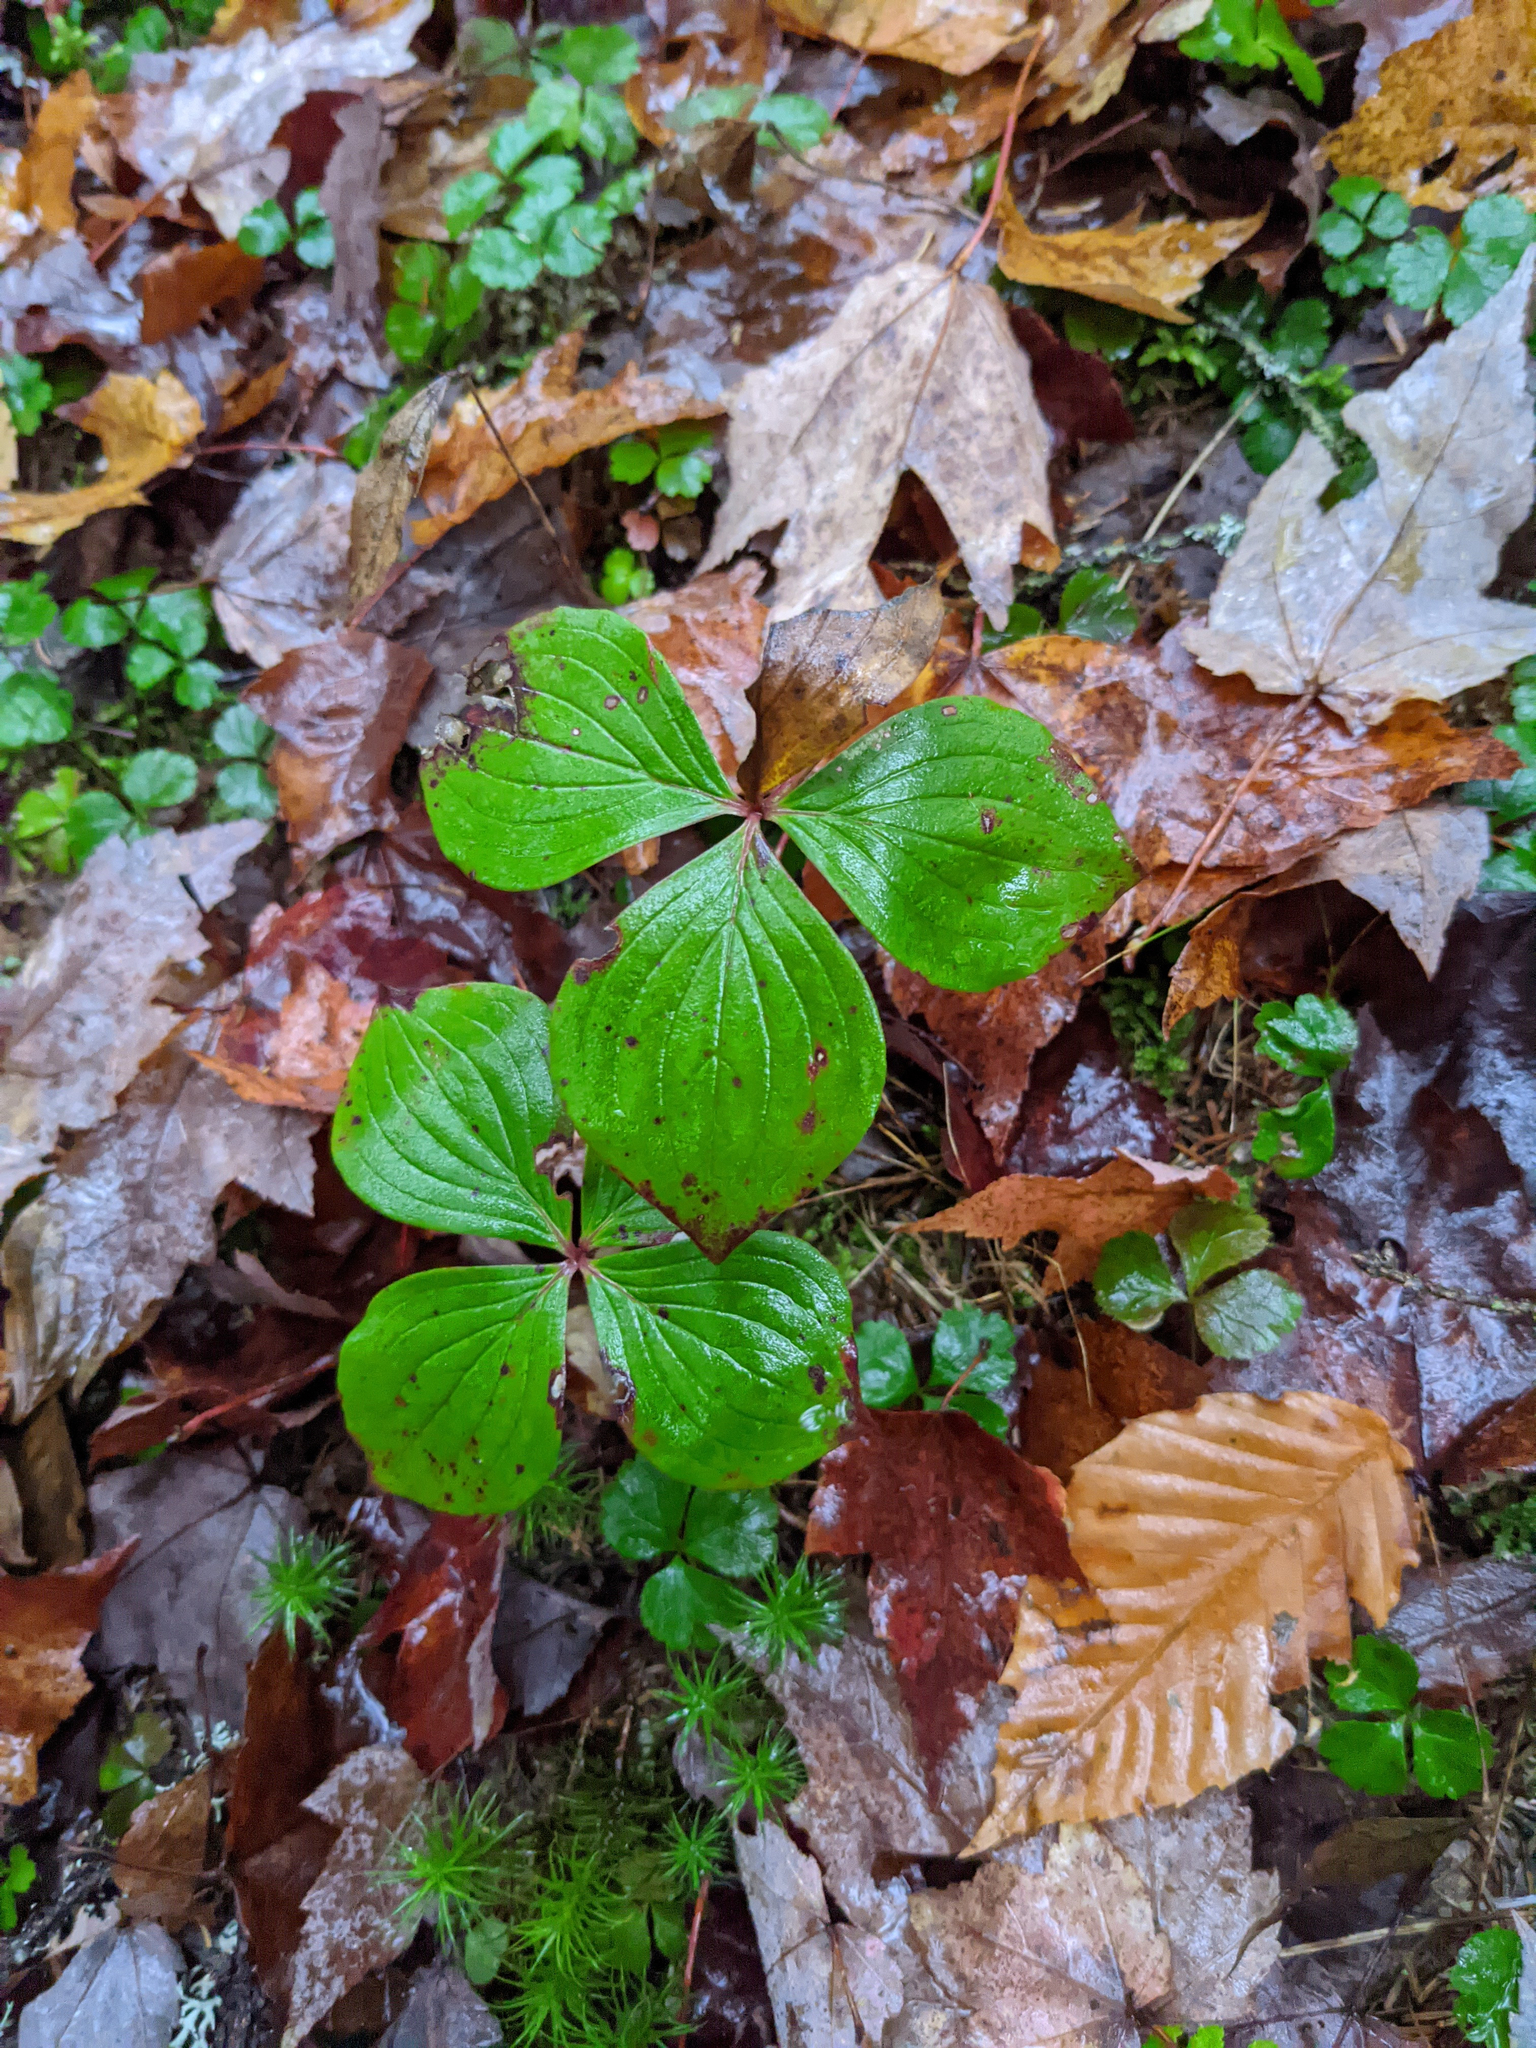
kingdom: Plantae
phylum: Tracheophyta
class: Magnoliopsida
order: Cornales
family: Cornaceae
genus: Cornus
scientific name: Cornus canadensis
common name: Creeping dogwood
